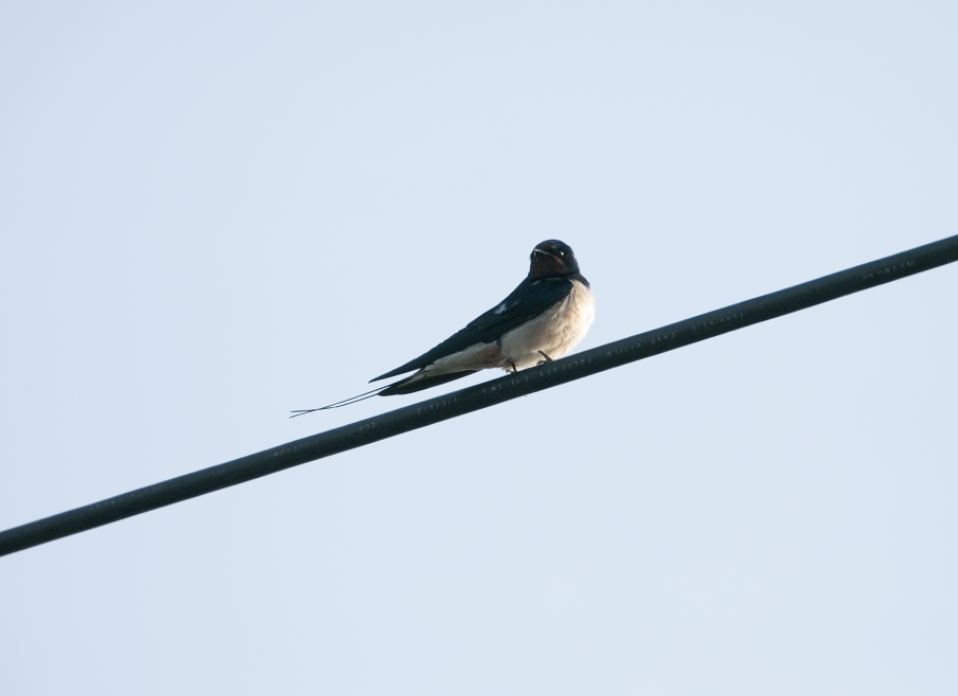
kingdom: Animalia
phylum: Chordata
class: Aves
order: Passeriformes
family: Hirundinidae
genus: Hirundo
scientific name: Hirundo rustica
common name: Barn swallow
